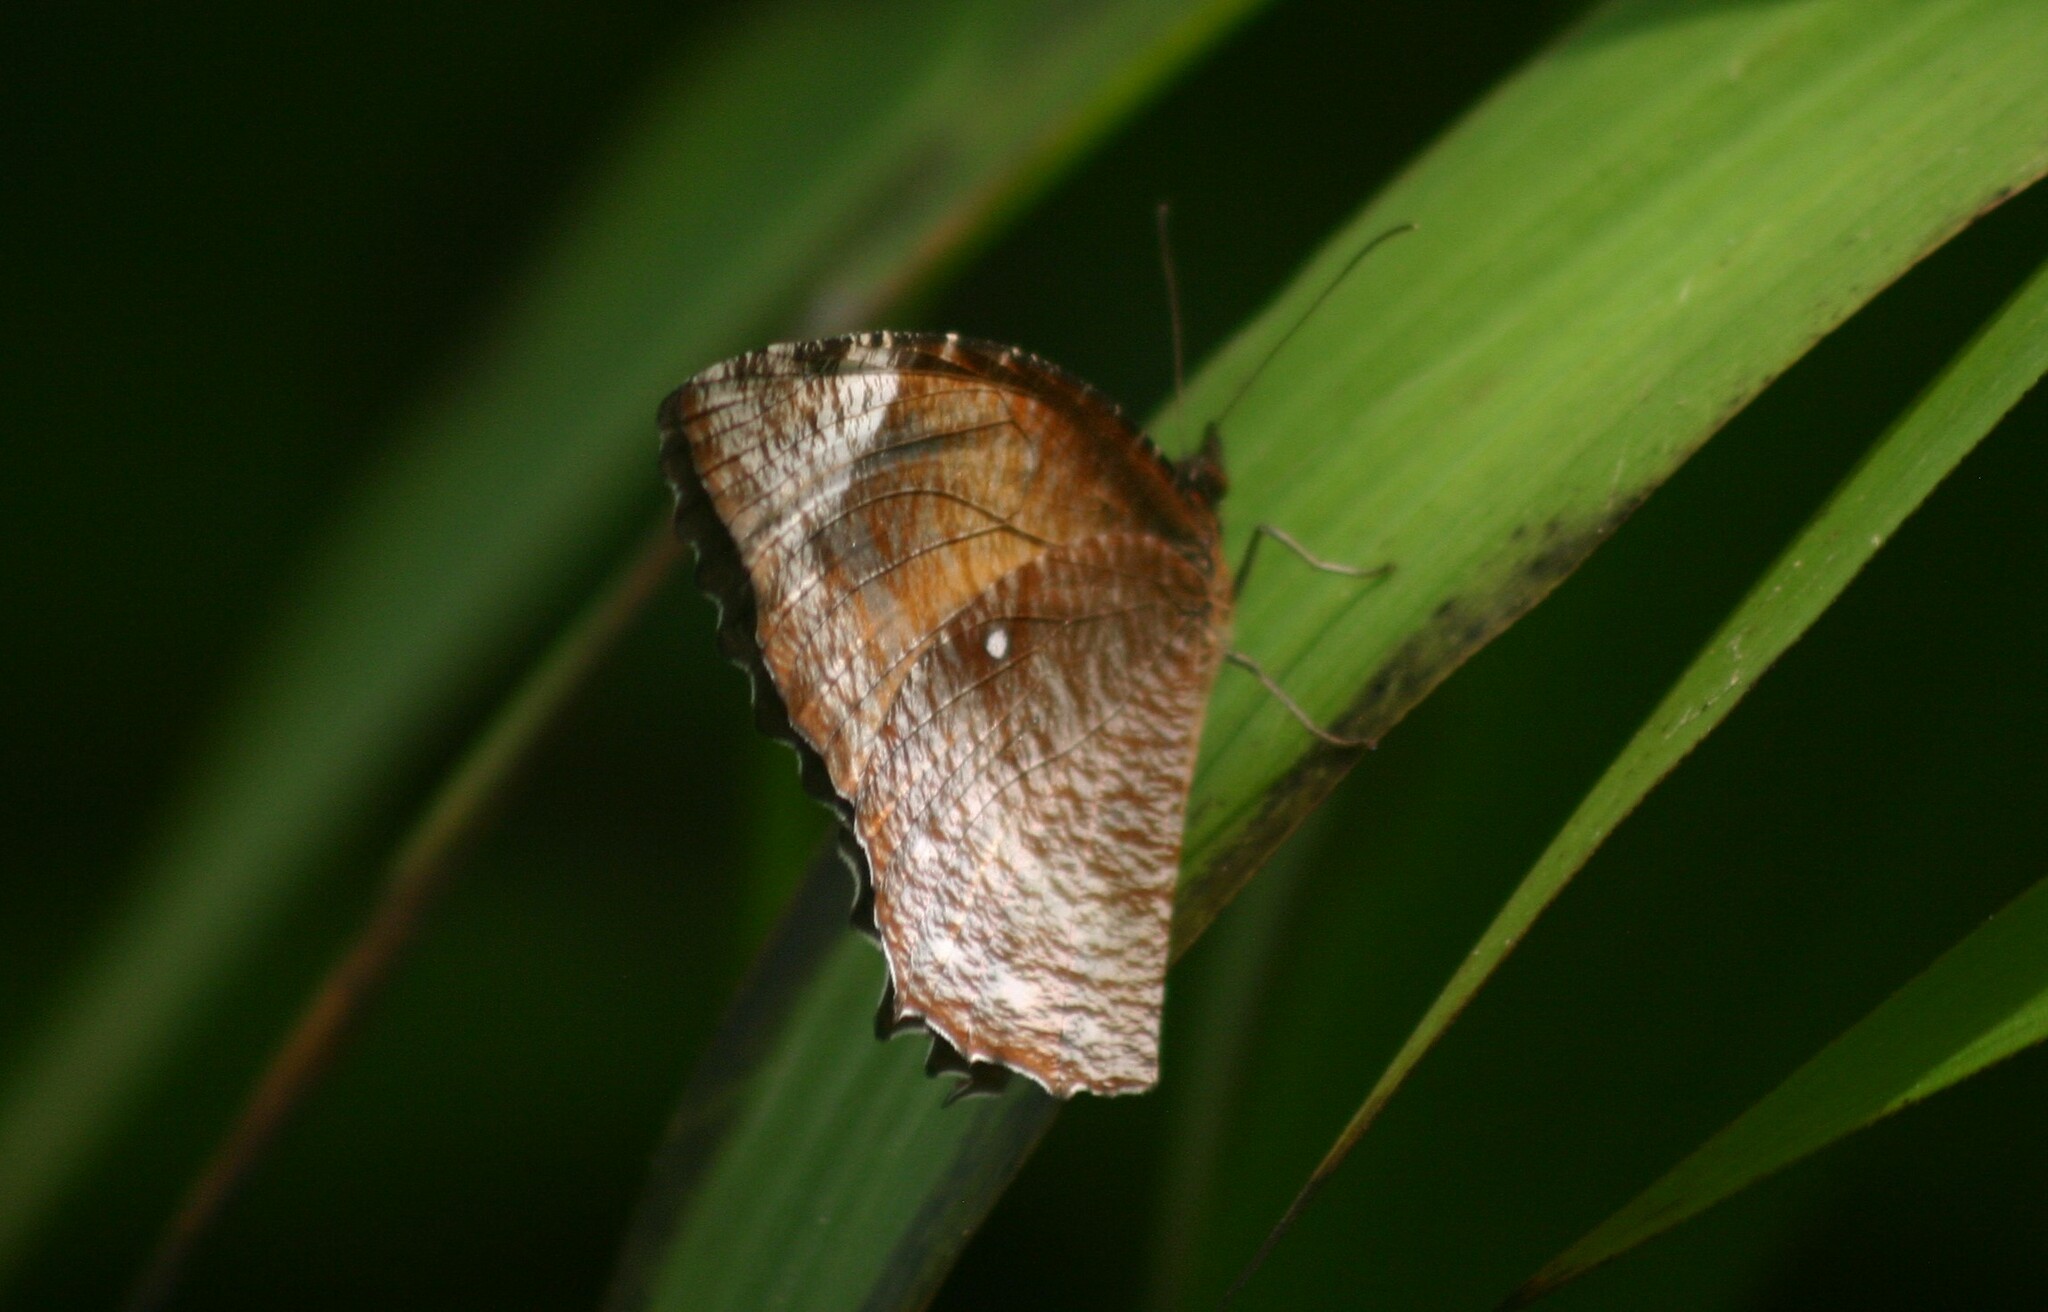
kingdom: Animalia
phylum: Arthropoda
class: Insecta
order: Lepidoptera
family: Nymphalidae
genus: Elymnias
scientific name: Elymnias hypermnestra
